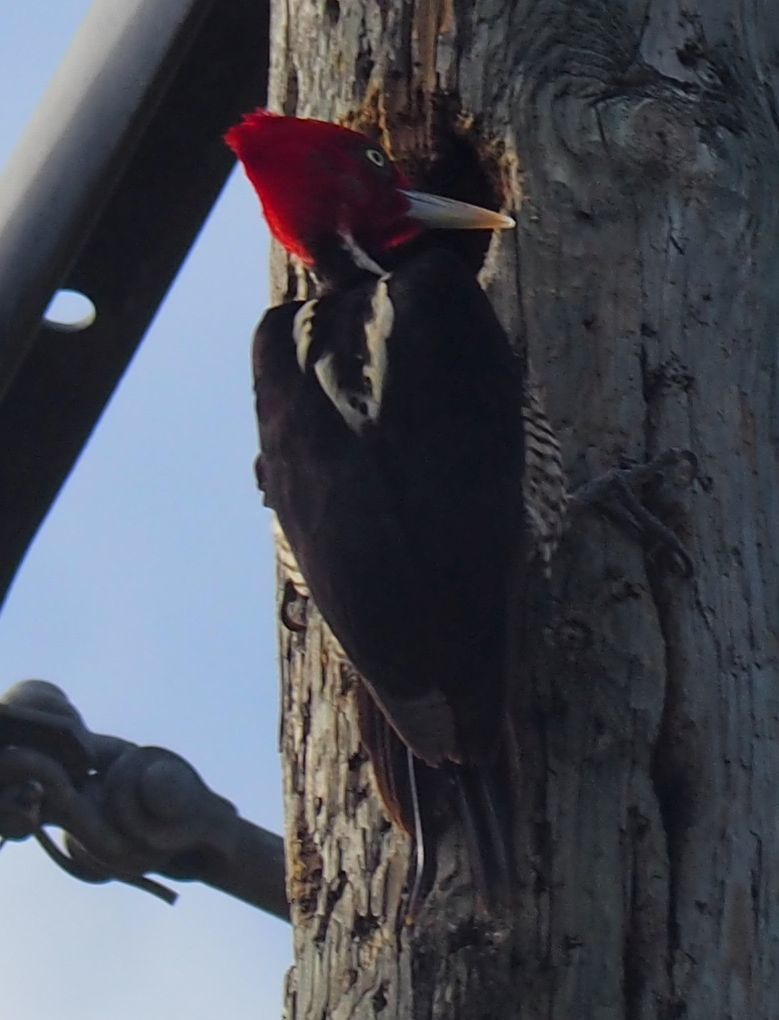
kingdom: Animalia
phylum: Chordata
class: Aves
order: Piciformes
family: Picidae
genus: Campephilus
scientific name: Campephilus guatemalensis
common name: Pale-billed woodpecker
